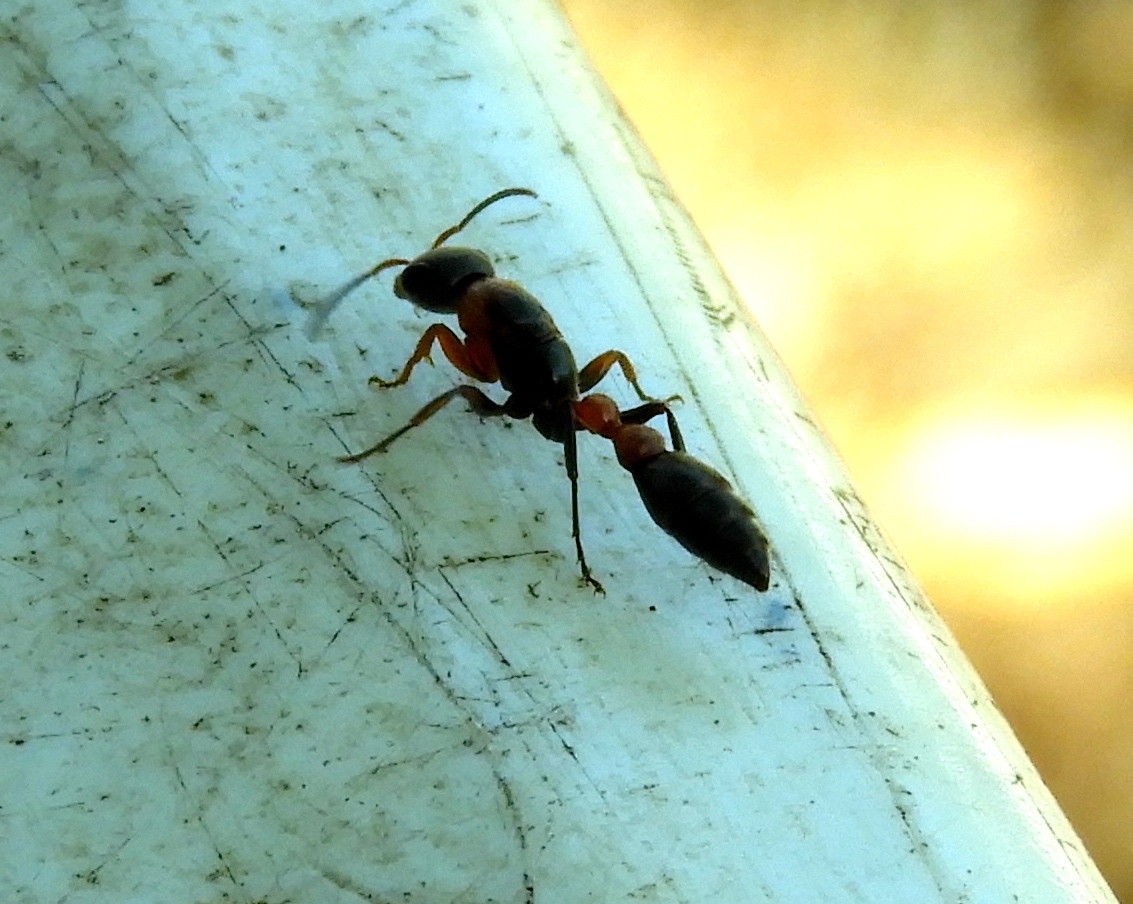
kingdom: Animalia
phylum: Arthropoda
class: Insecta
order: Hymenoptera
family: Formicidae
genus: Pseudomyrmex
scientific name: Pseudomyrmex gracilis
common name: Graceful twig ant
